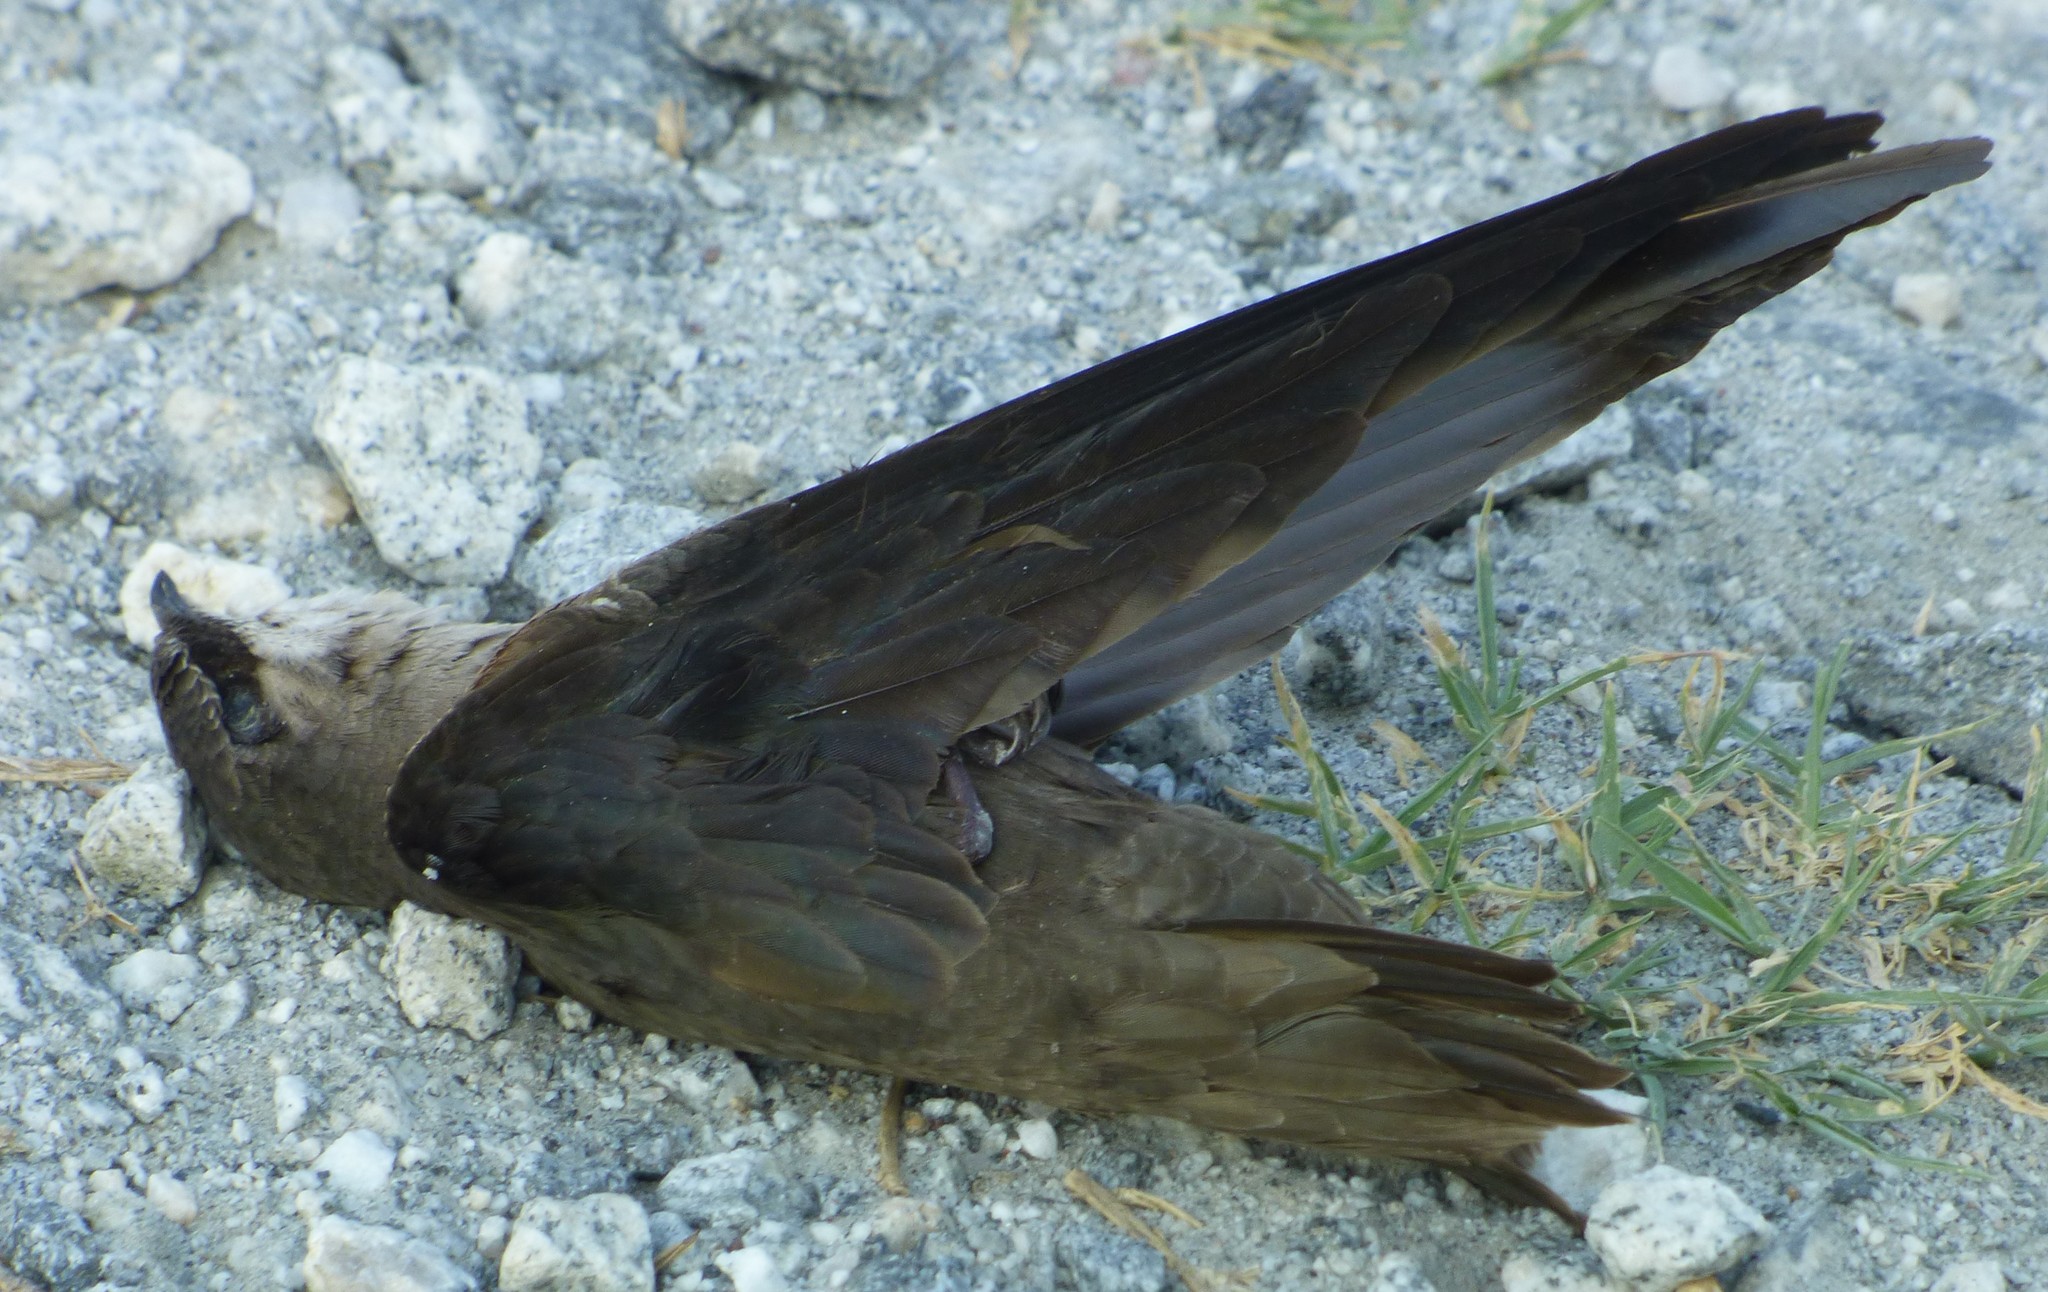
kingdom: Animalia
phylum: Chordata
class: Aves
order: Apodiformes
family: Apodidae
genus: Chaetura
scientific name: Chaetura pelagica
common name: Chimney swift
